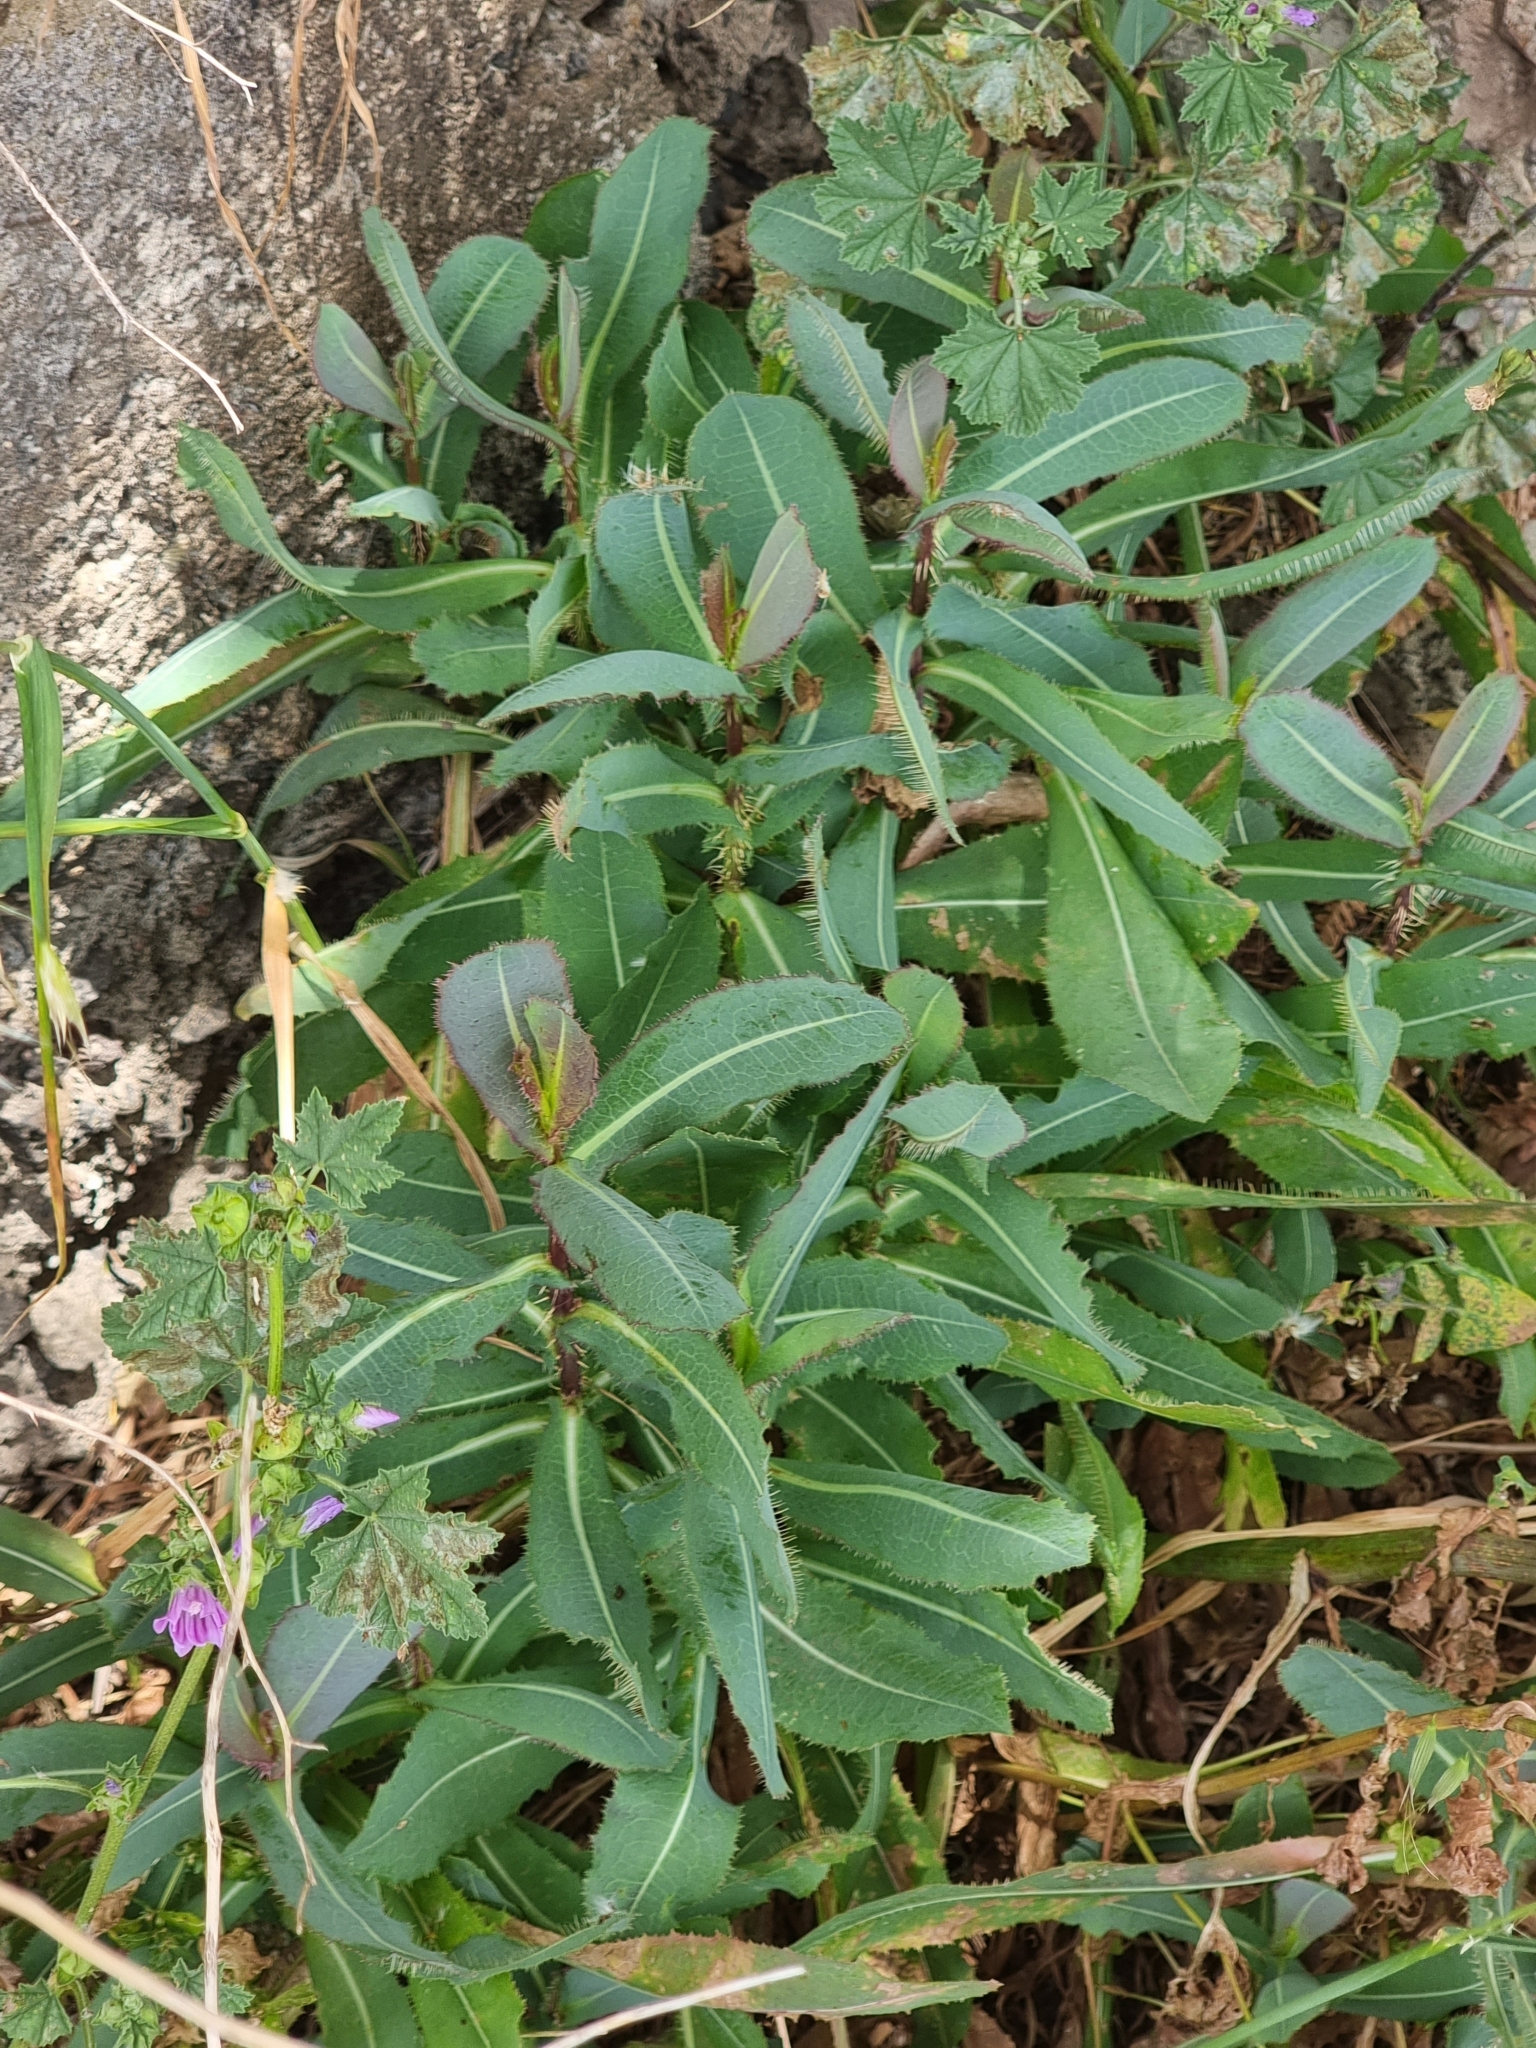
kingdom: Plantae
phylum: Tracheophyta
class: Magnoliopsida
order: Asterales
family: Asteraceae
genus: Lactuca
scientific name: Lactuca serriola
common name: Prickly lettuce
